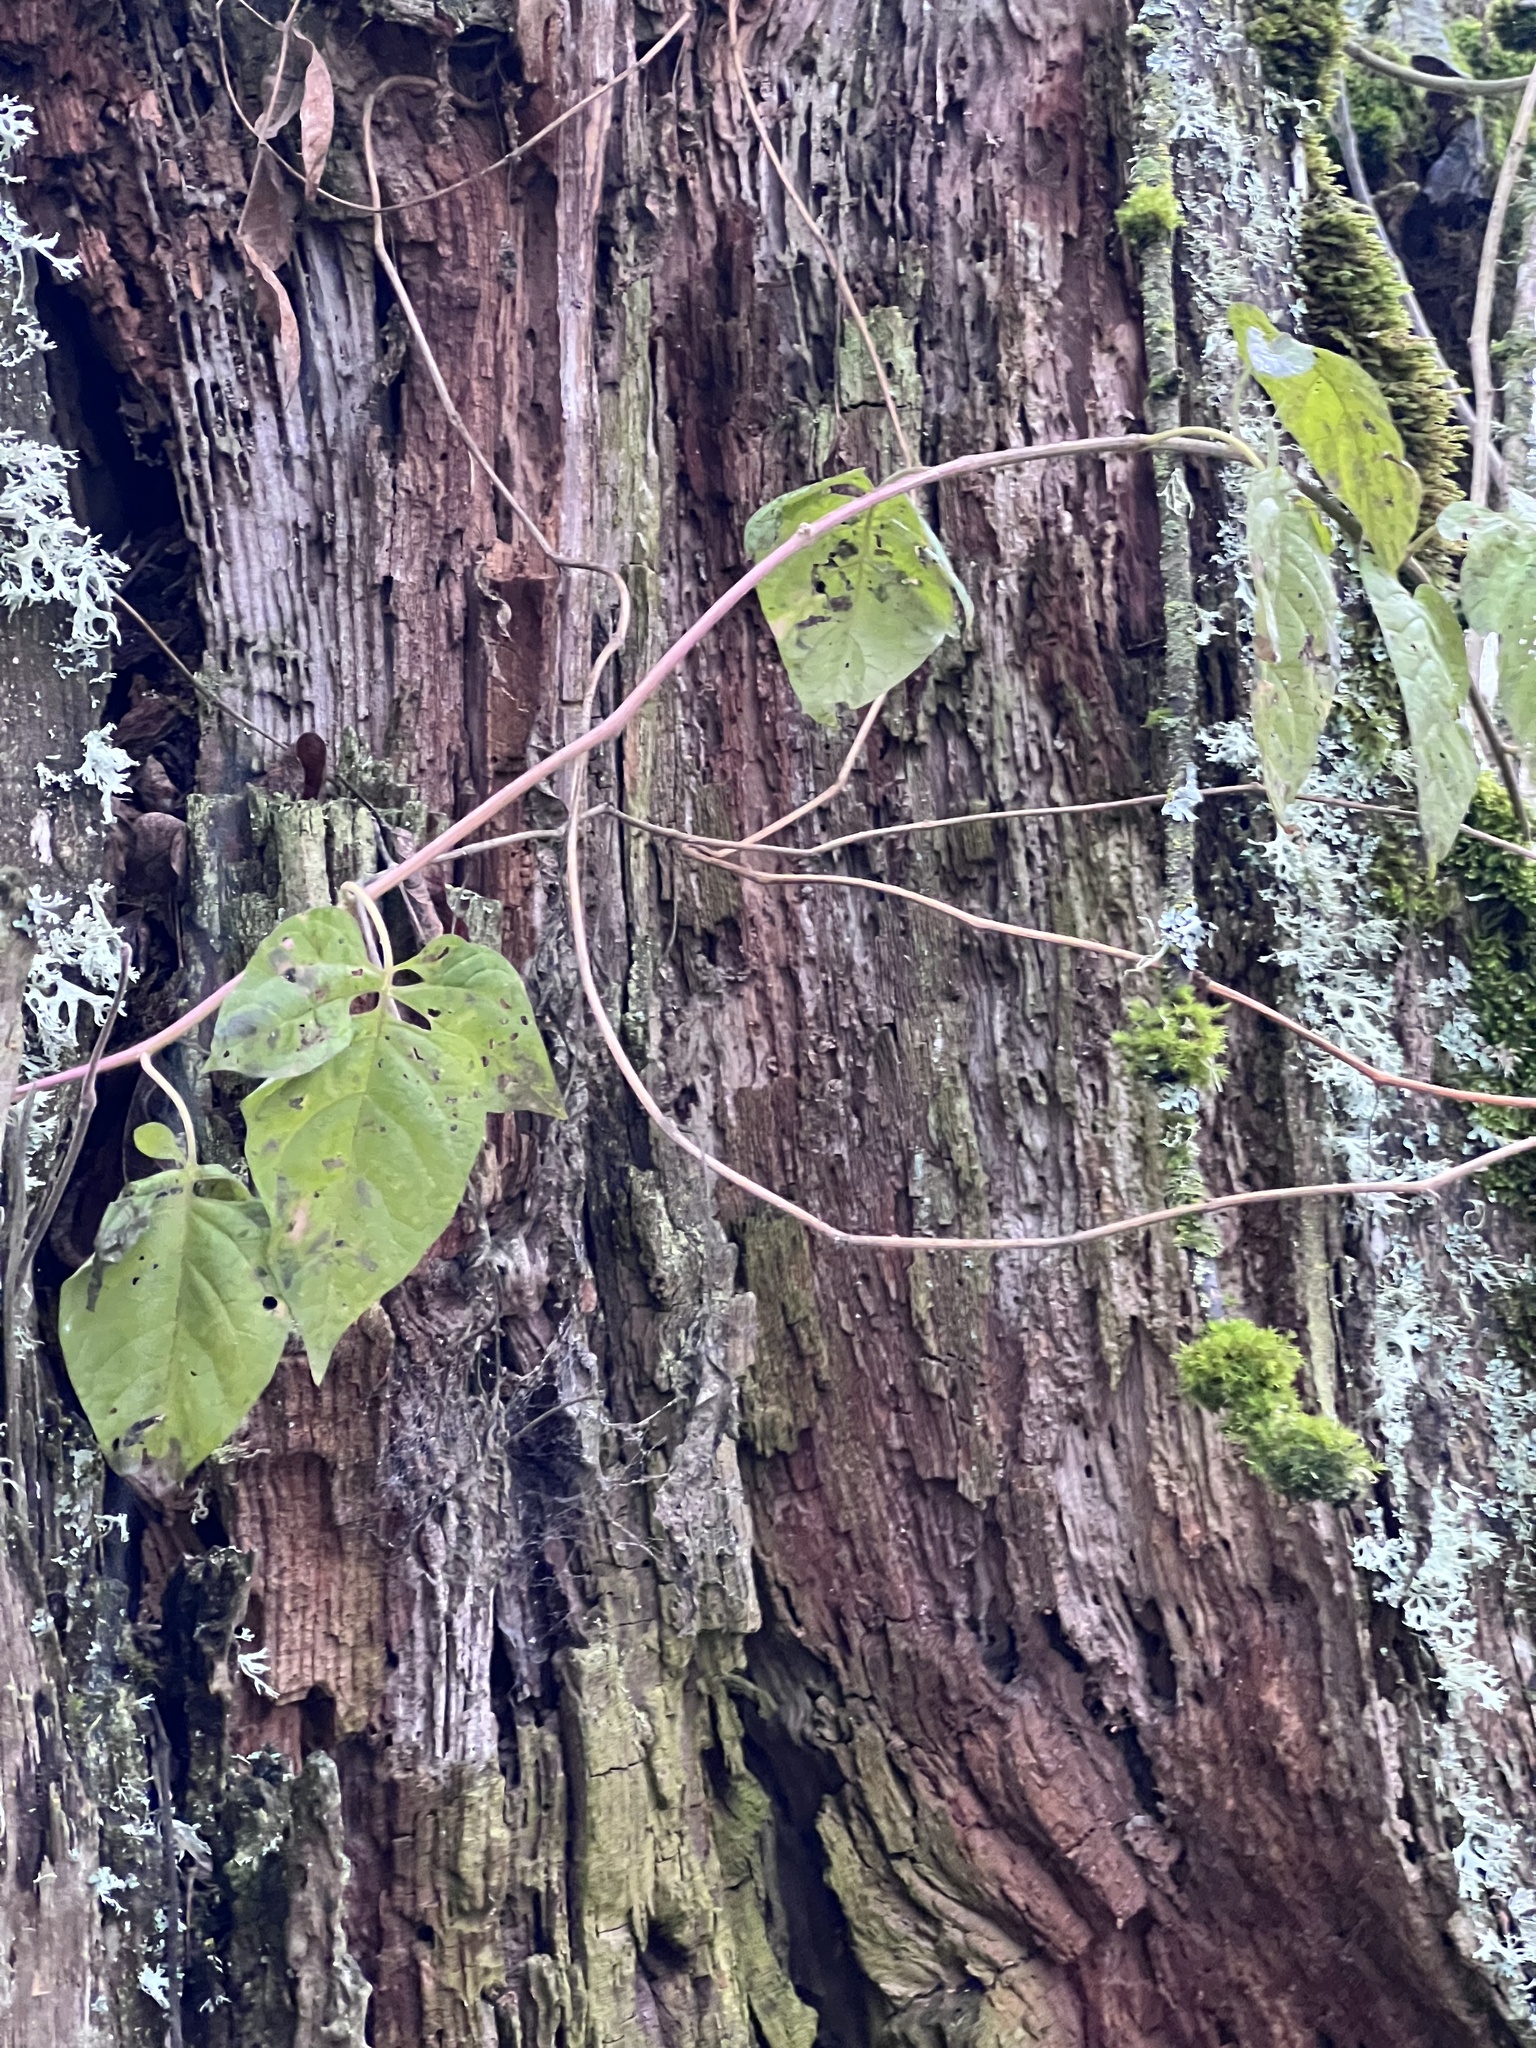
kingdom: Plantae
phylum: Tracheophyta
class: Magnoliopsida
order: Solanales
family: Solanaceae
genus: Solanum
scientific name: Solanum dulcamara
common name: Climbing nightshade
